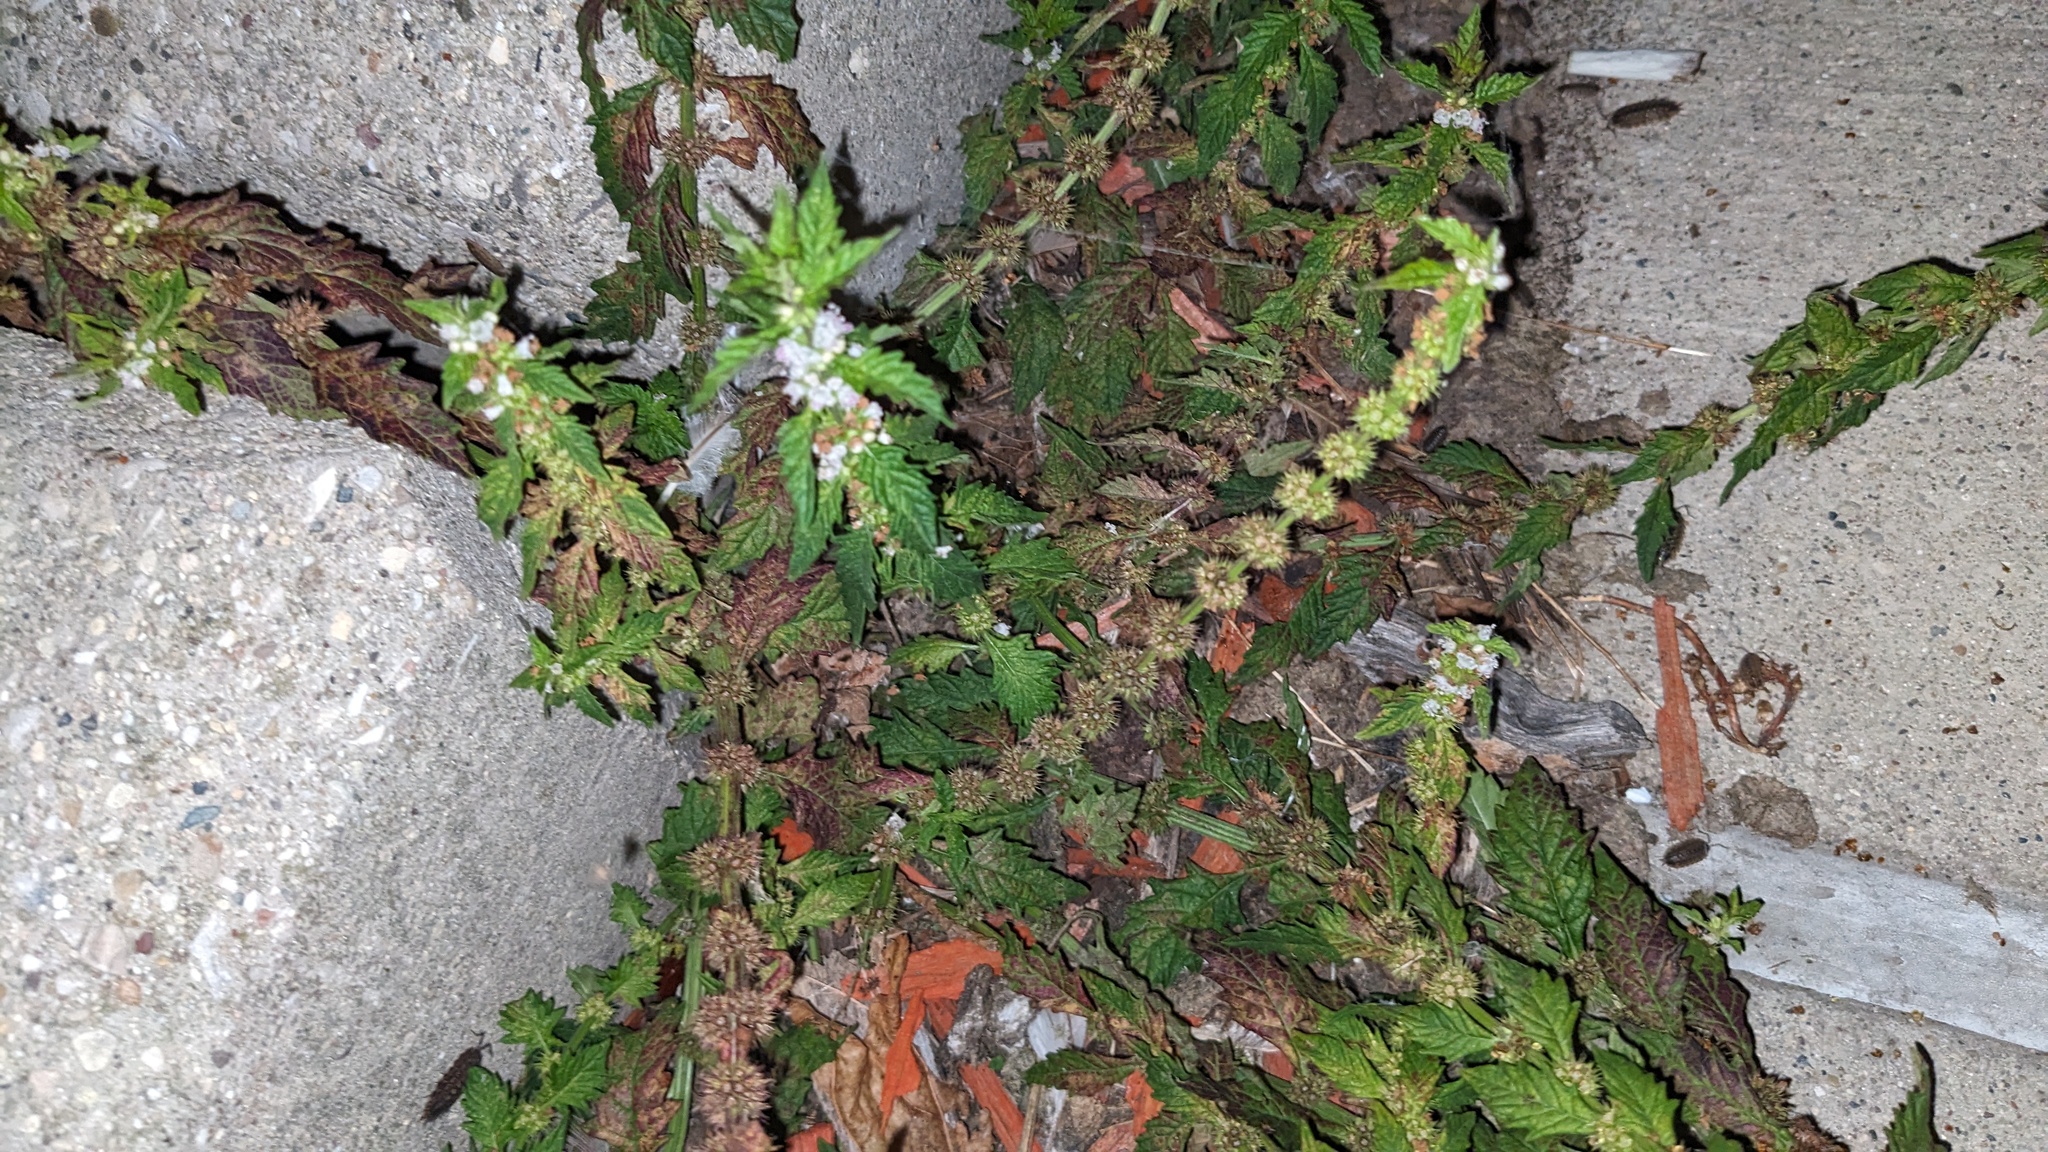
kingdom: Plantae
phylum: Tracheophyta
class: Magnoliopsida
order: Lamiales
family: Lamiaceae
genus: Lycopus
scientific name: Lycopus europaeus
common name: European bugleweed
